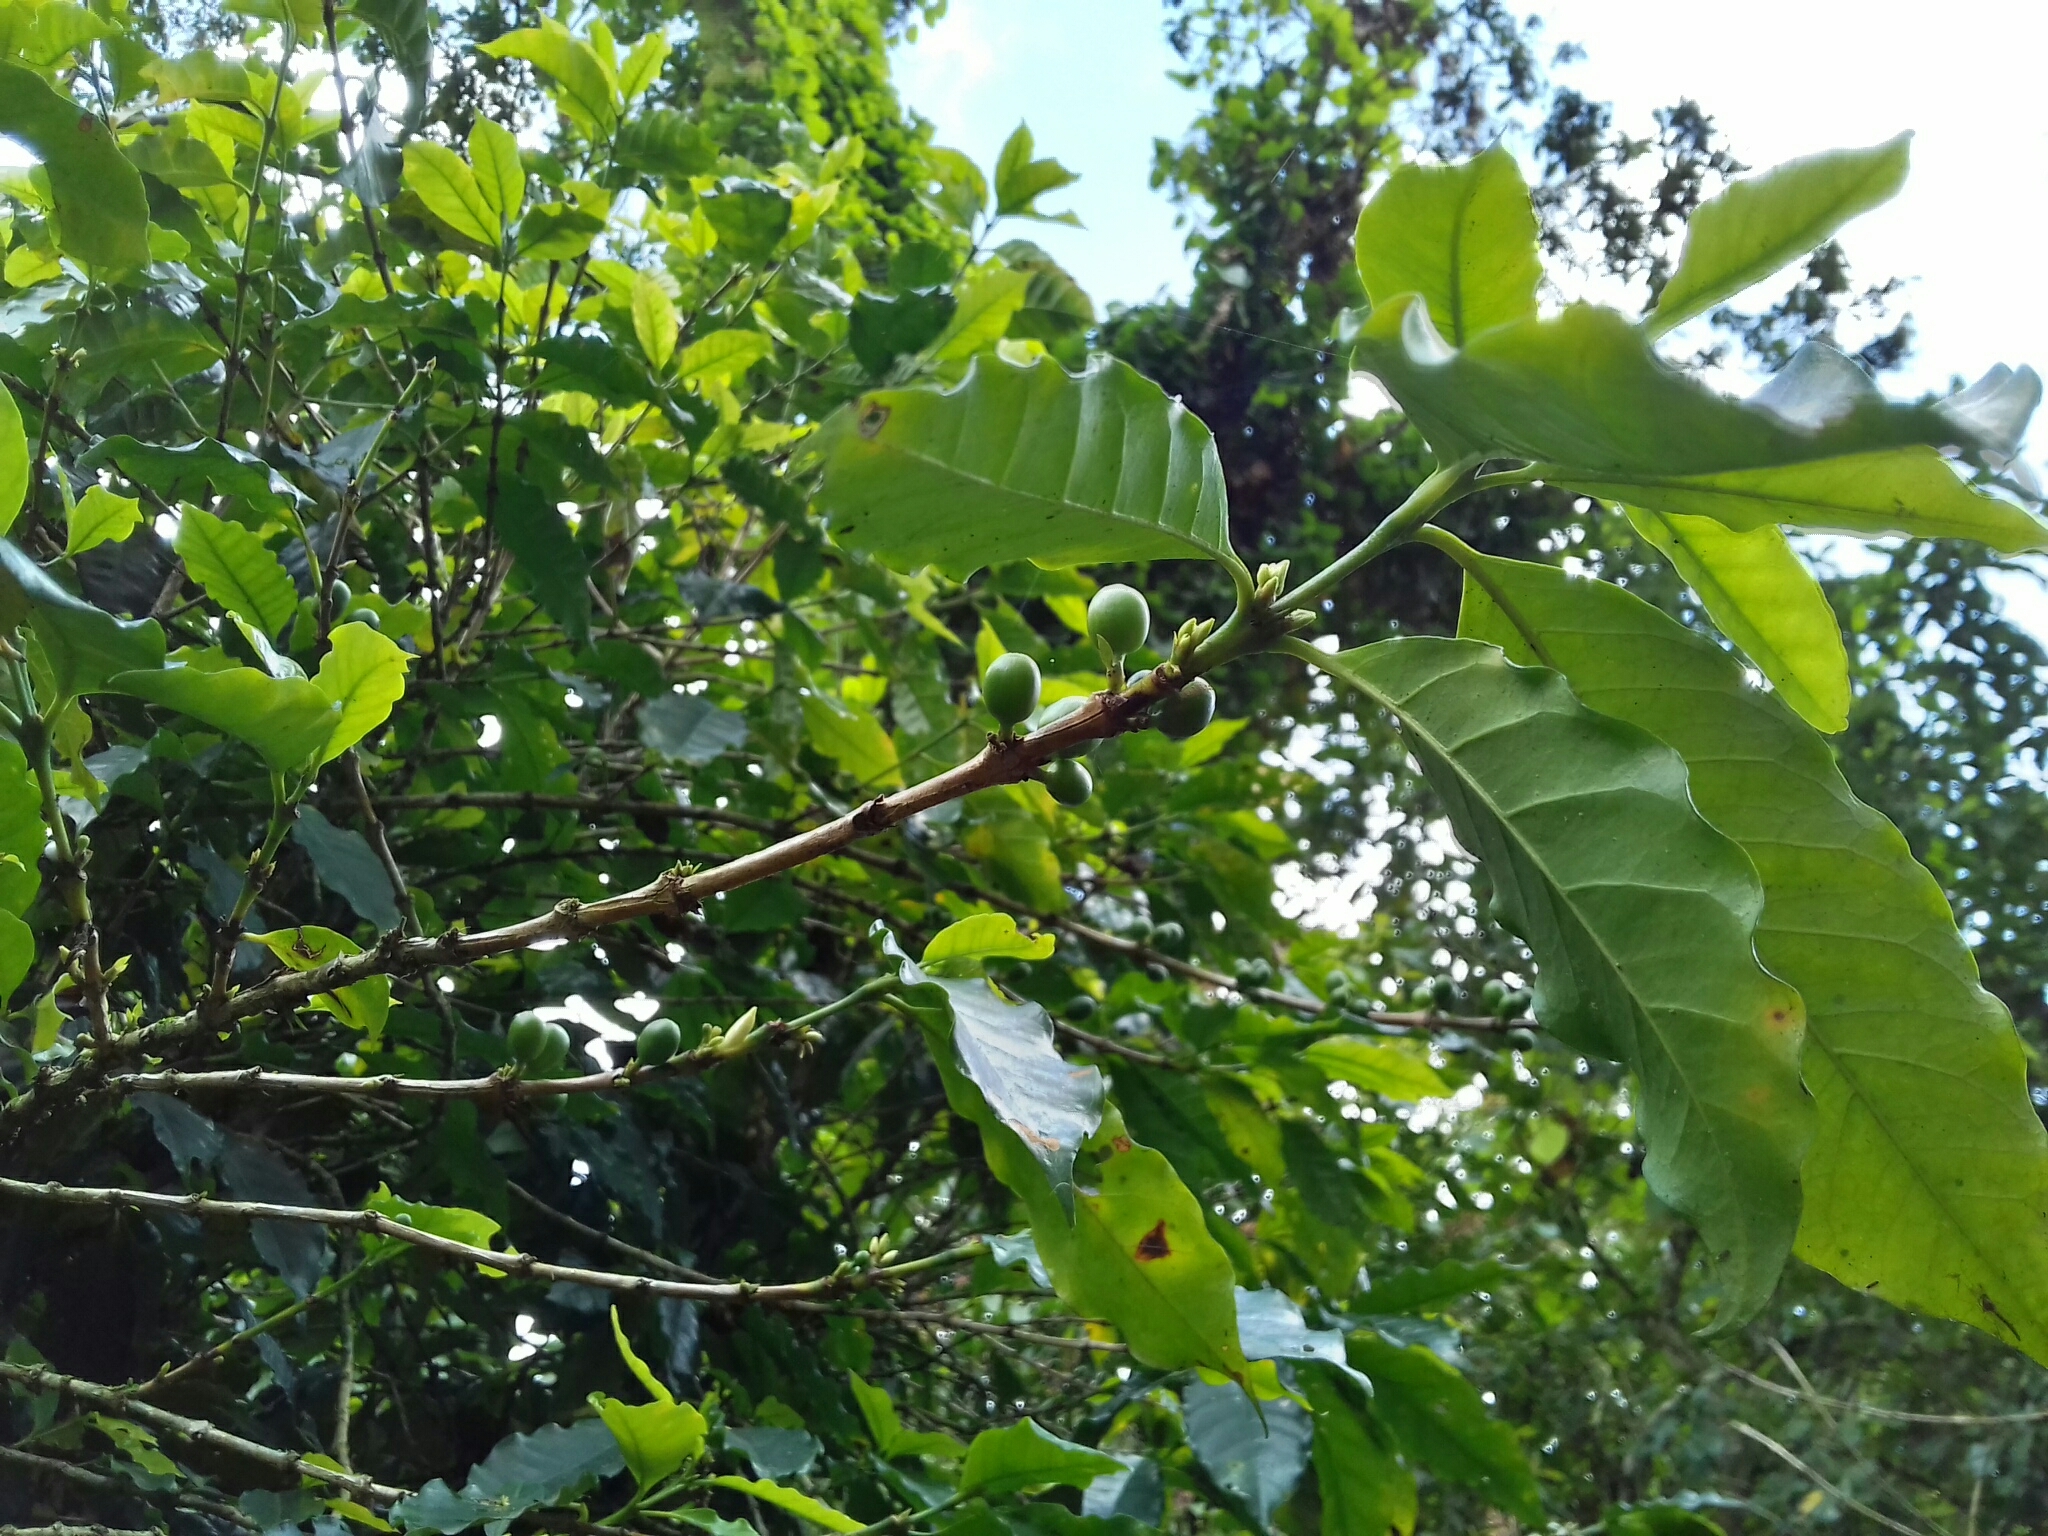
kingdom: Plantae
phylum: Tracheophyta
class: Magnoliopsida
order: Gentianales
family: Rubiaceae
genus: Coffea
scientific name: Coffea arabica
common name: Coffee
